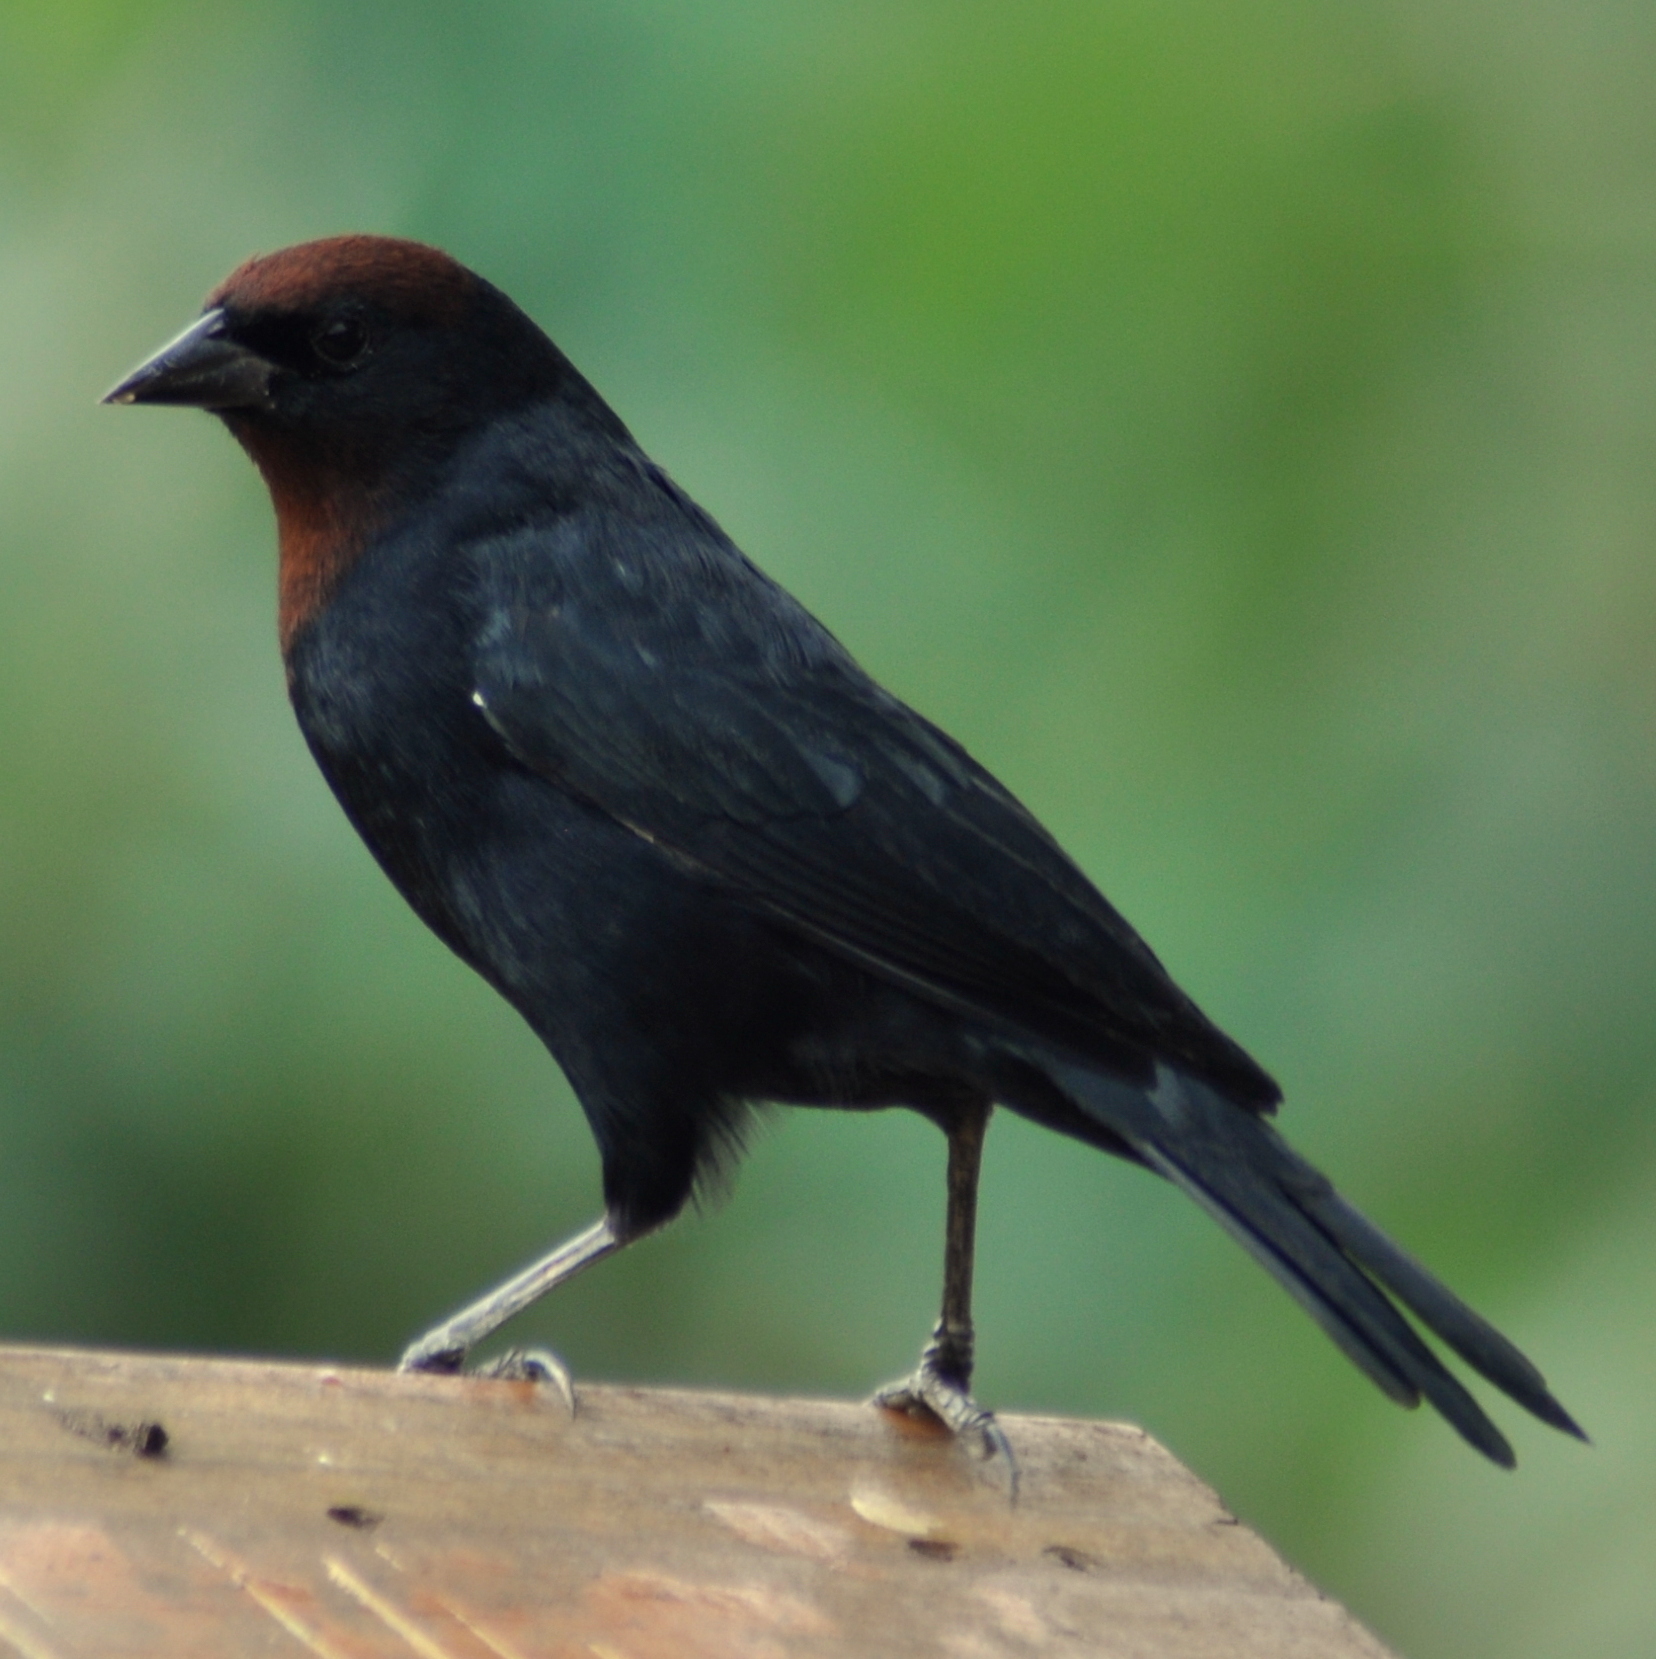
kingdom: Animalia
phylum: Chordata
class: Aves
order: Passeriformes
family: Icteridae
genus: Chrysomus
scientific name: Chrysomus ruficapillus
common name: Chestnut-capped blackbird
